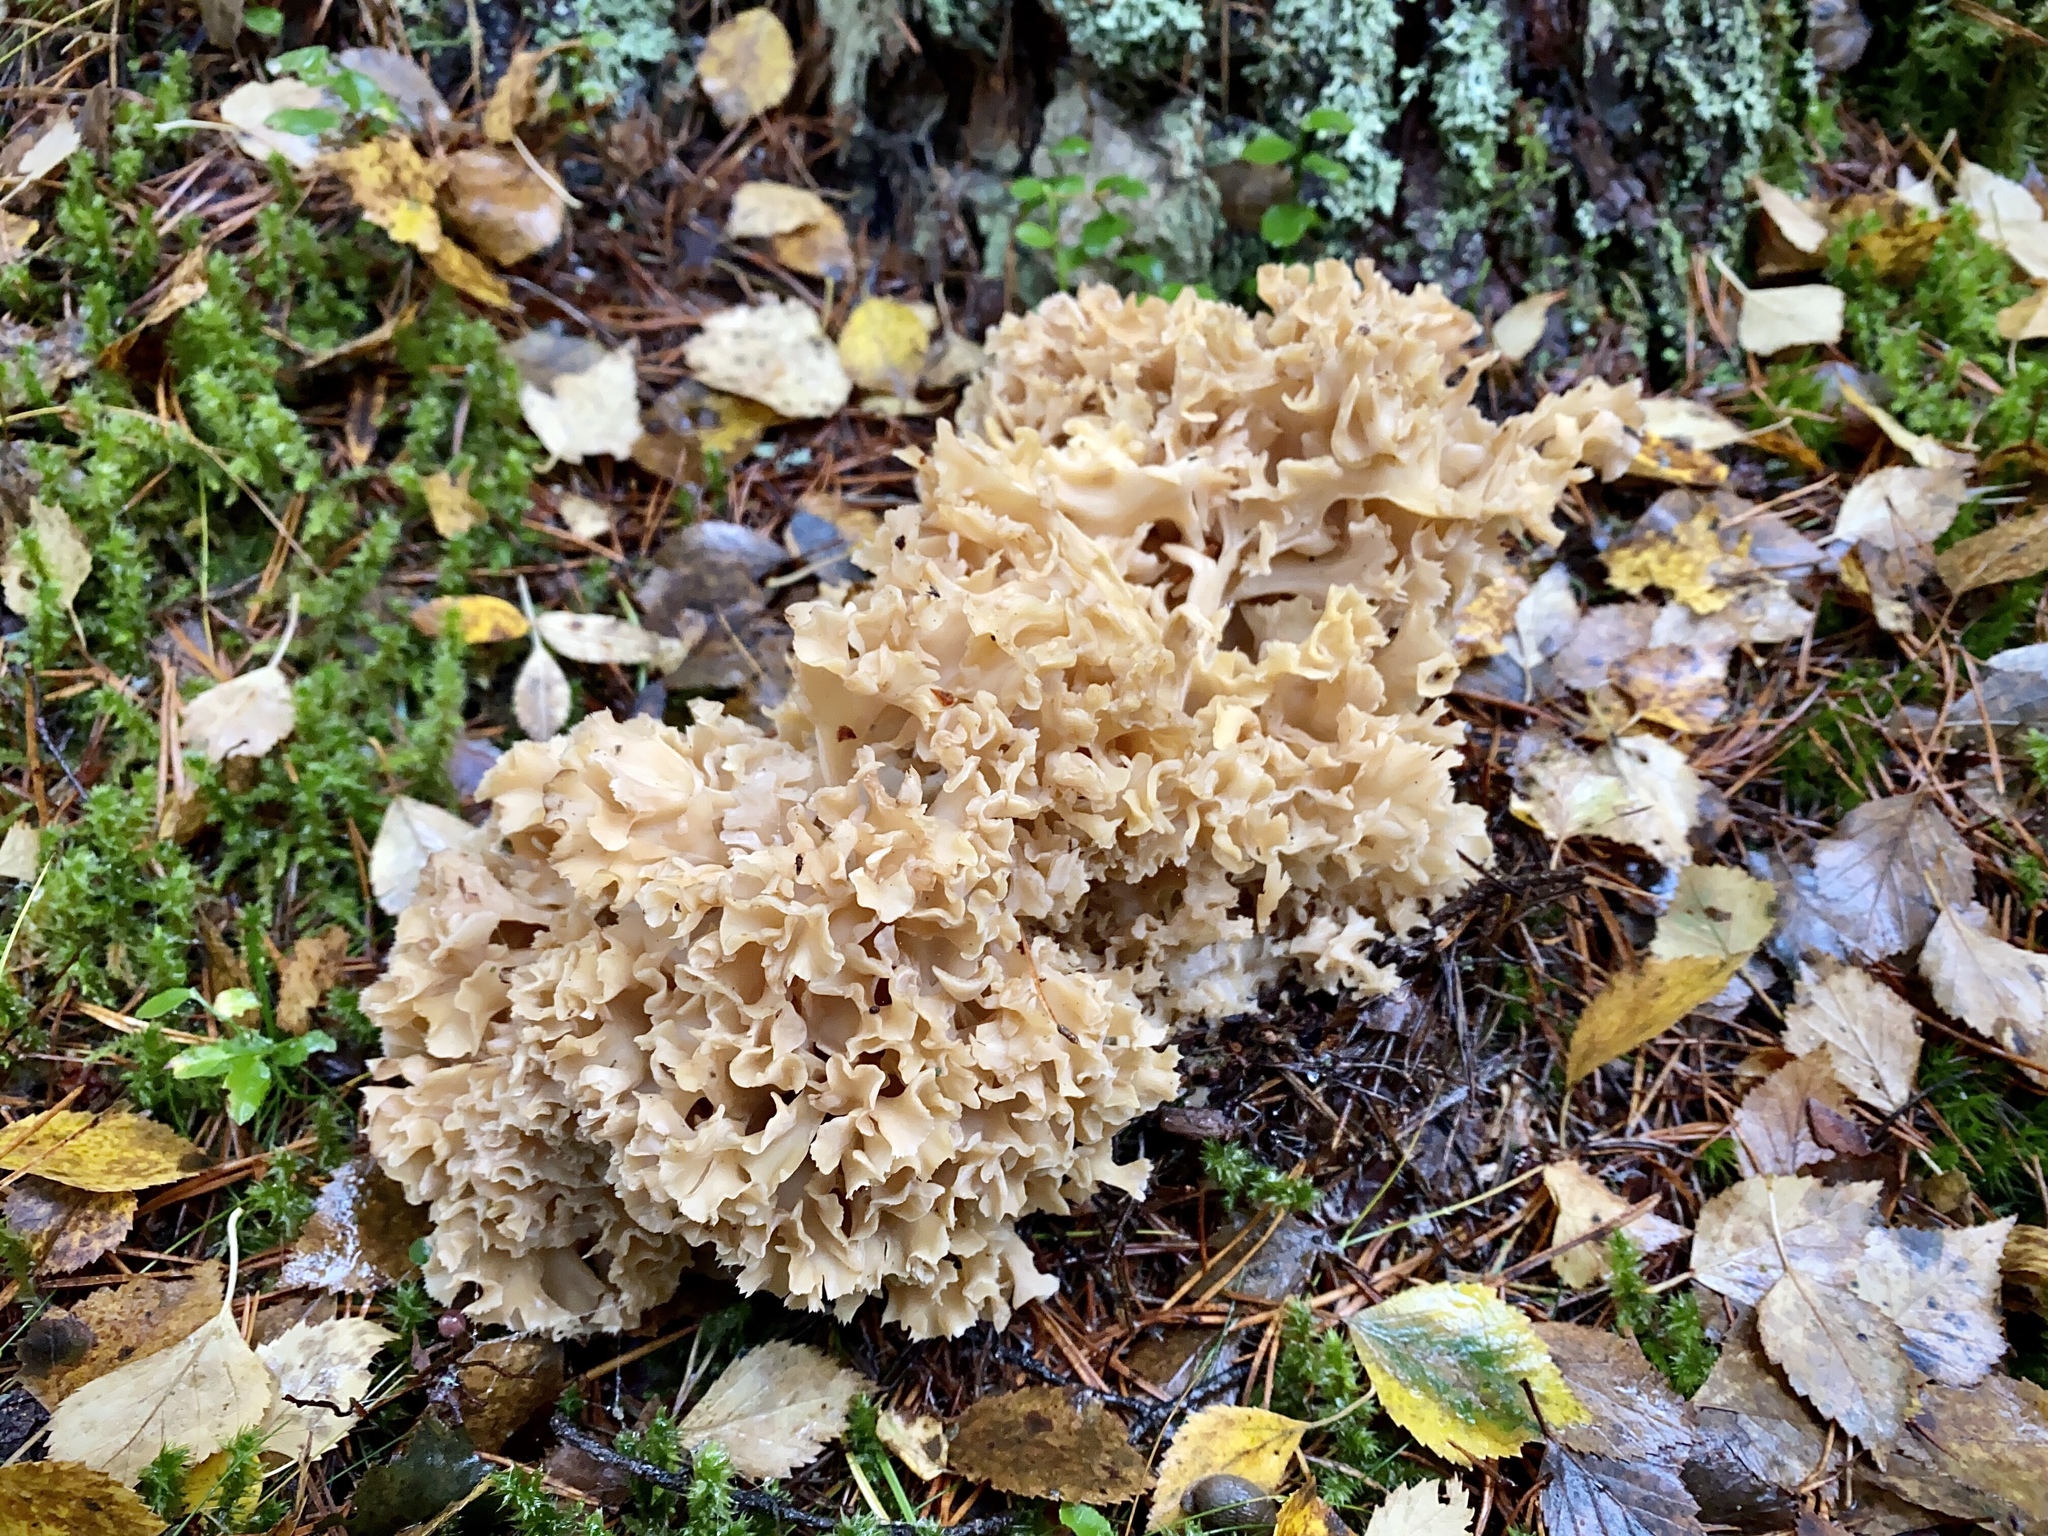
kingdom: Fungi
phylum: Basidiomycota
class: Agaricomycetes
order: Polyporales
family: Sparassidaceae
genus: Sparassis
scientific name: Sparassis crispa
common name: Brain fungus
